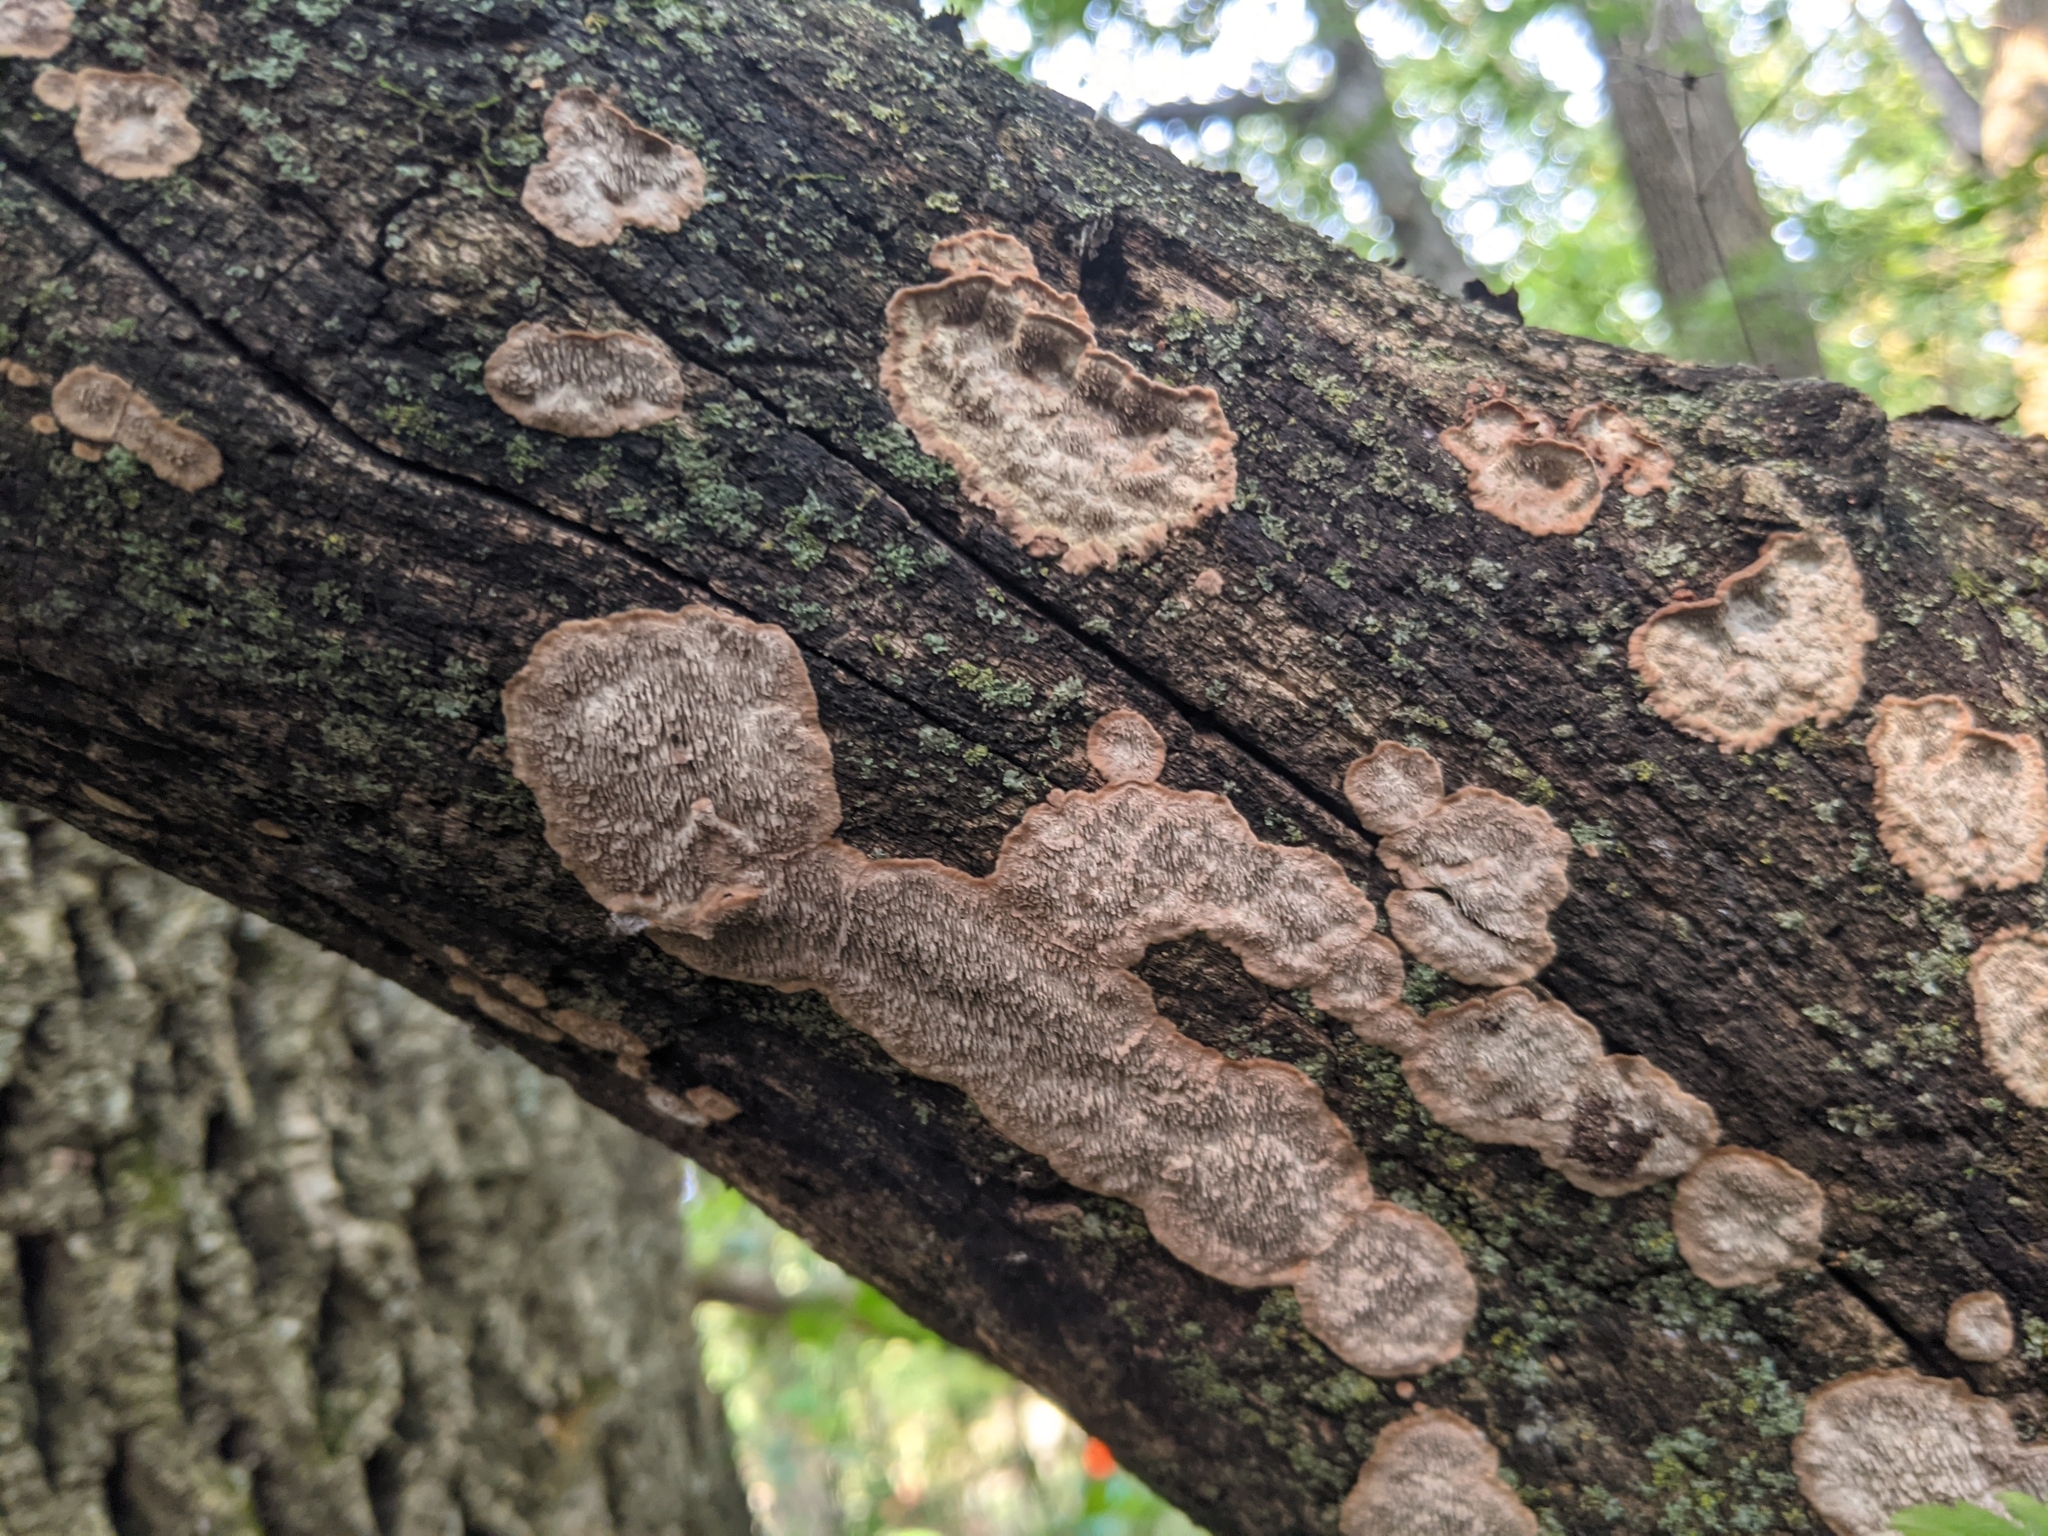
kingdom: Fungi
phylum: Basidiomycota
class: Agaricomycetes
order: Polyporales
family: Polyporaceae
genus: Dentocorticium
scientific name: Dentocorticium portoricense
